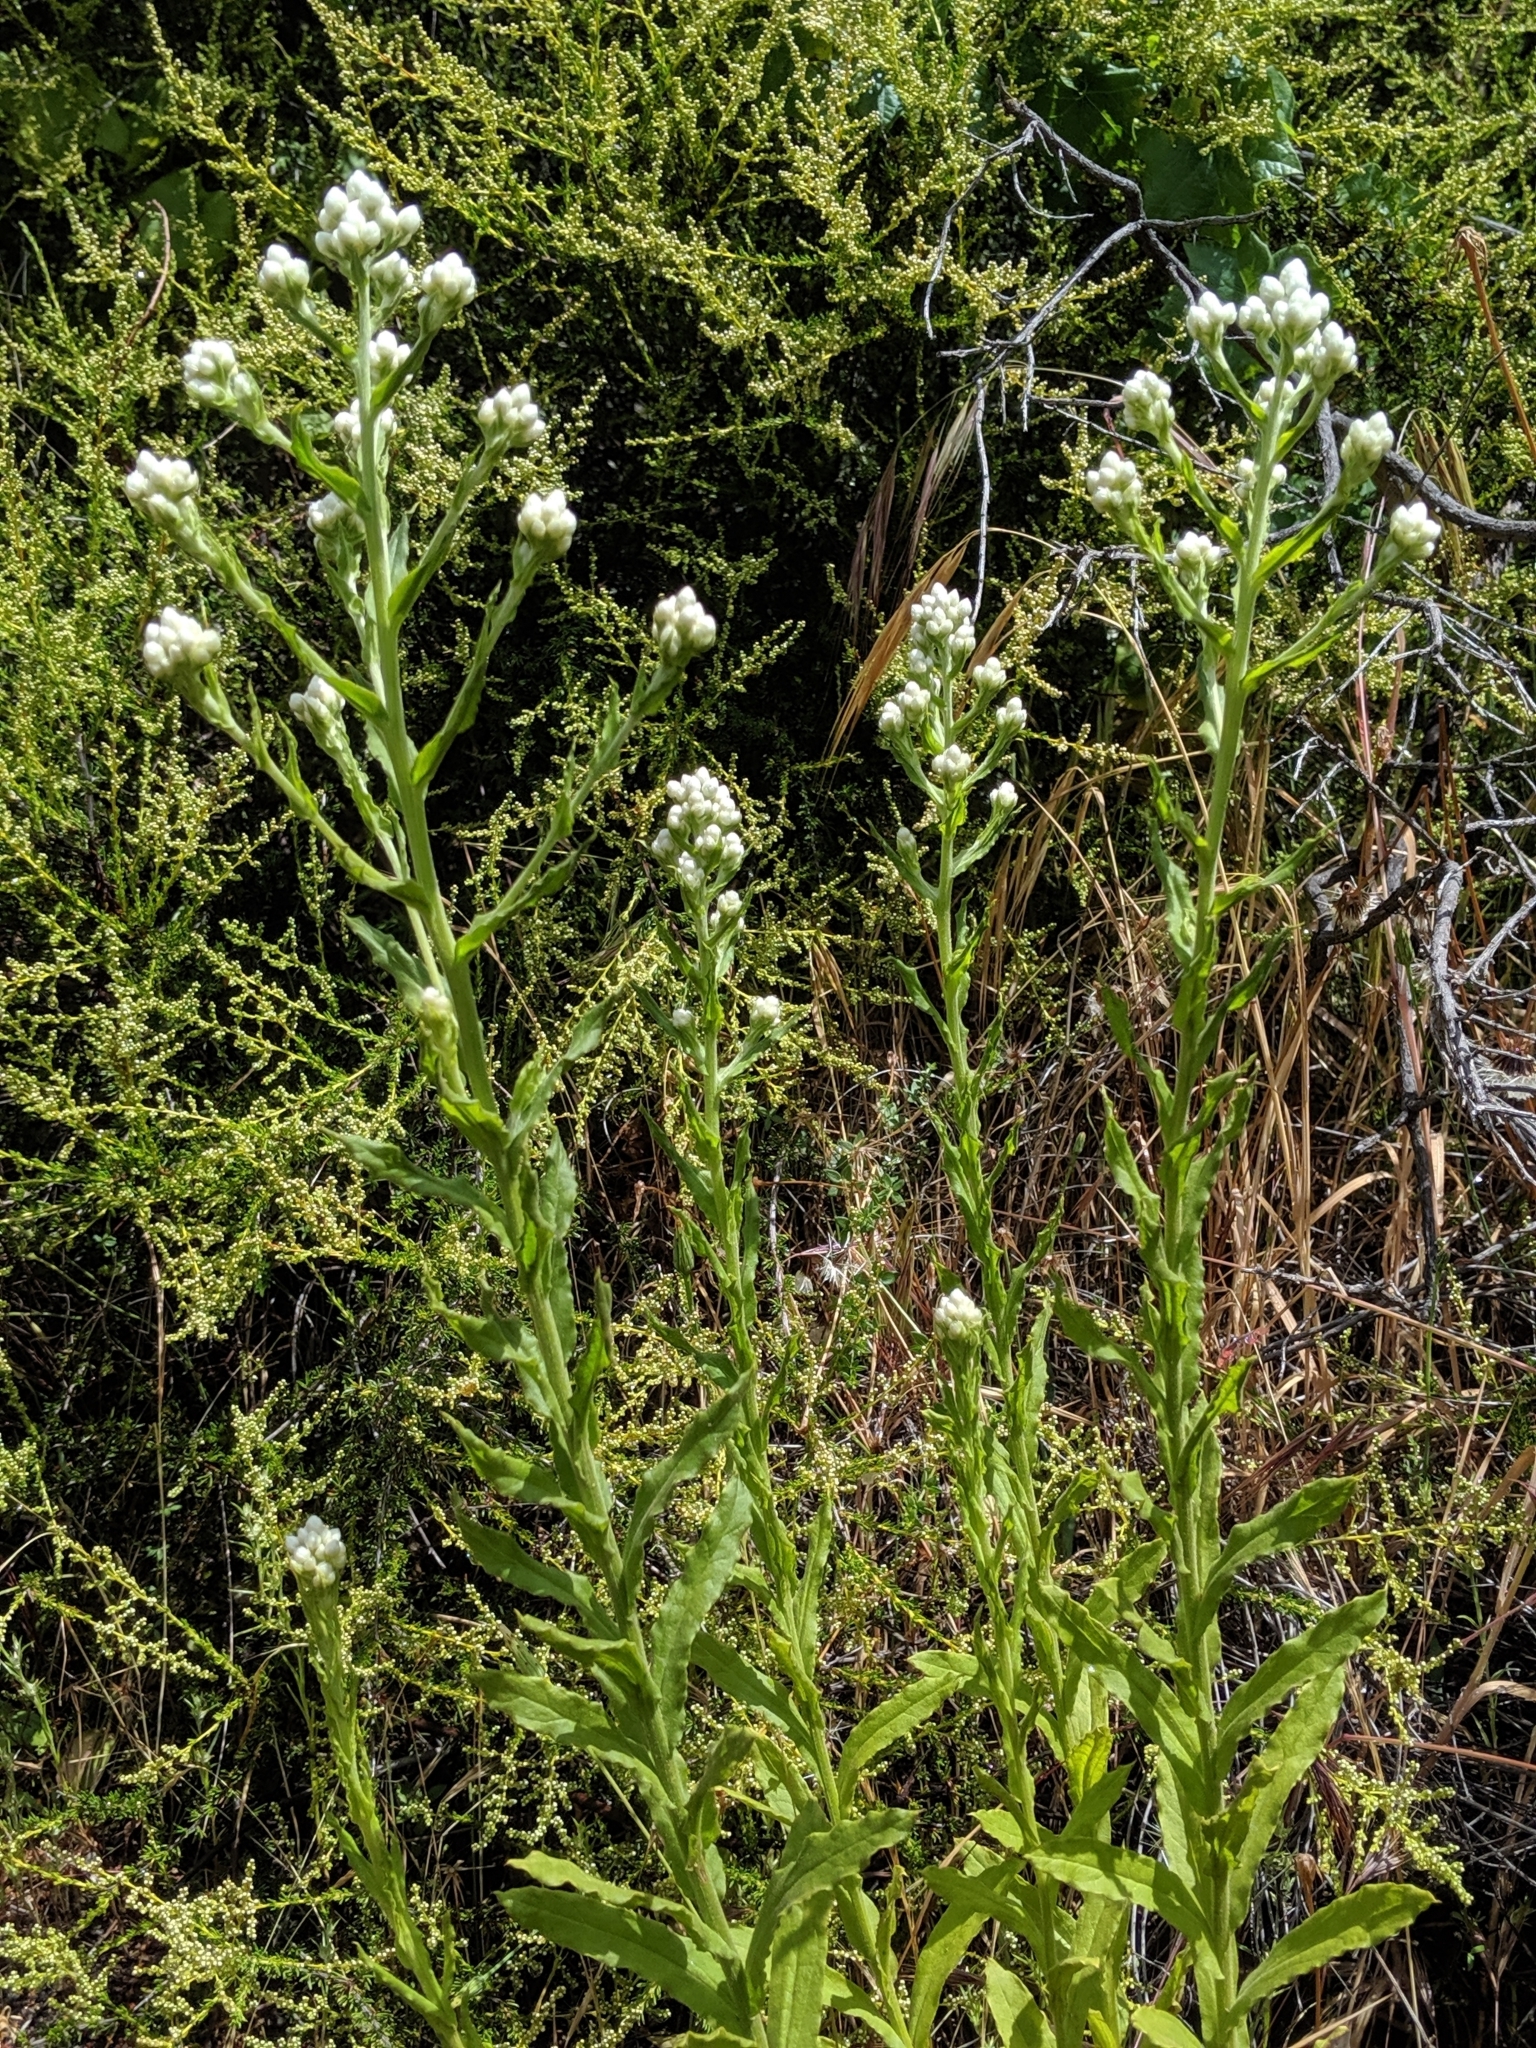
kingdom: Plantae
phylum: Tracheophyta
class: Magnoliopsida
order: Asterales
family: Asteraceae
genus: Pseudognaphalium
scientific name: Pseudognaphalium californicum
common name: California rabbit-tobacco
